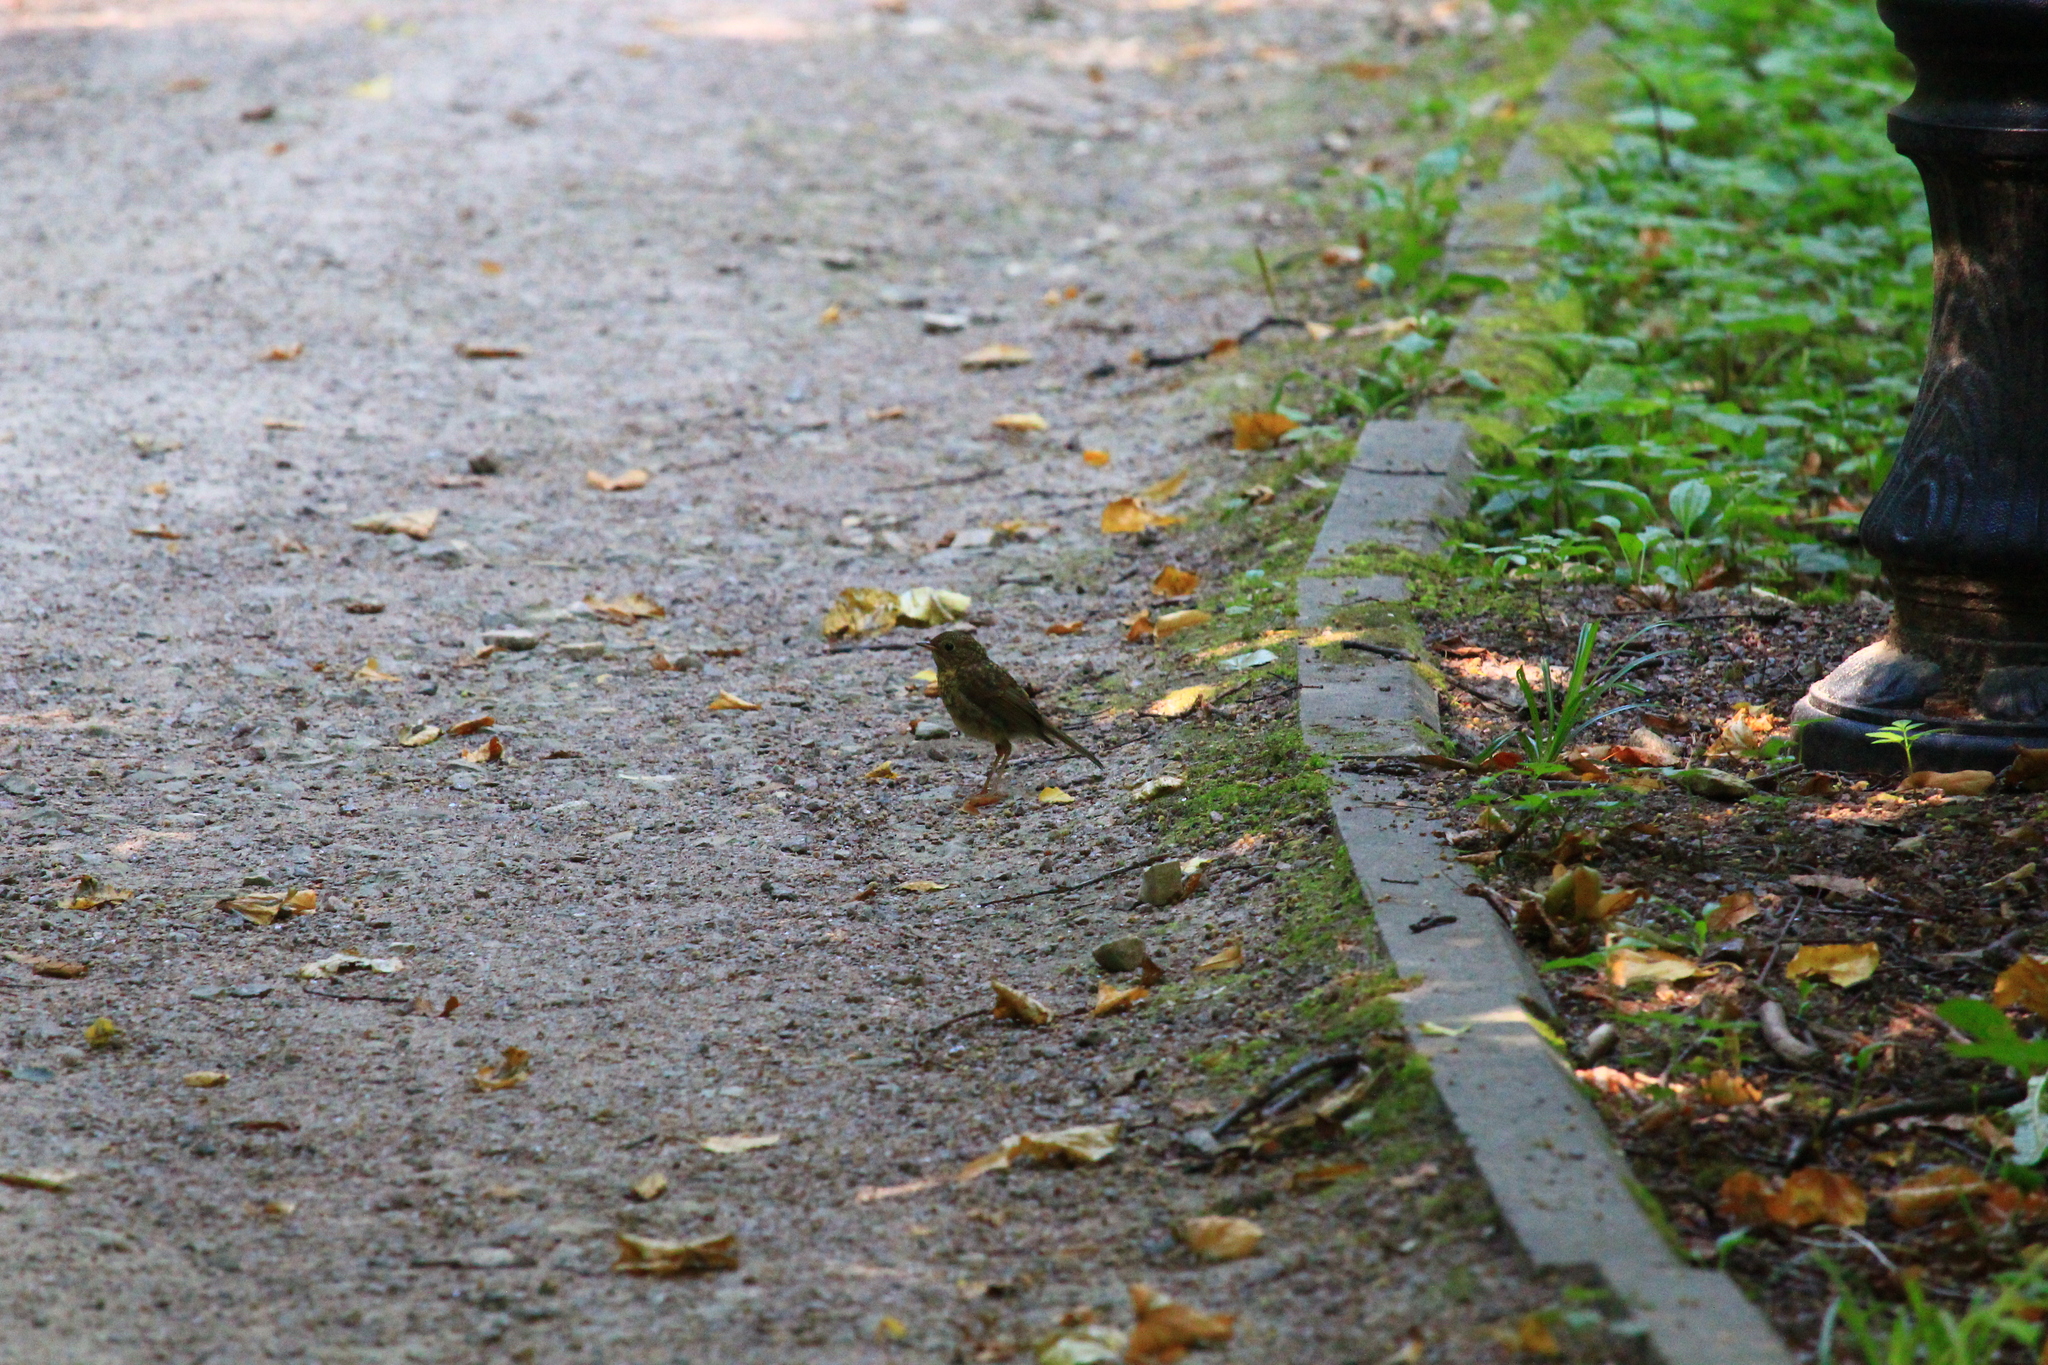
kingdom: Animalia
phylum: Chordata
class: Aves
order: Passeriformes
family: Muscicapidae
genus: Erithacus
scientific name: Erithacus rubecula
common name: European robin
